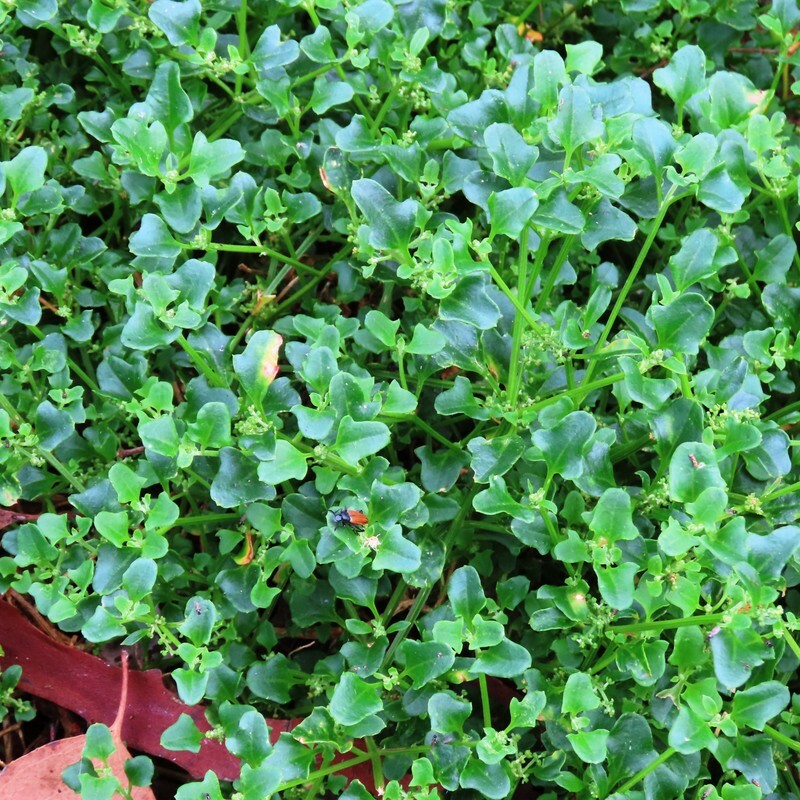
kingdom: Plantae
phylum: Tracheophyta
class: Magnoliopsida
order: Caryophyllales
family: Amaranthaceae
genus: Chenopodium
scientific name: Chenopodium robertianum
